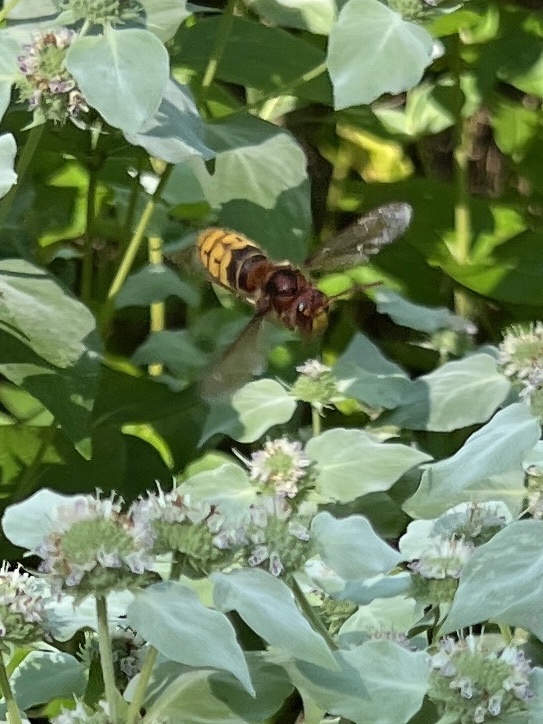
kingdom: Animalia
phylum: Arthropoda
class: Insecta
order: Hymenoptera
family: Vespidae
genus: Vespa
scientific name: Vespa crabro
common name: Hornet
